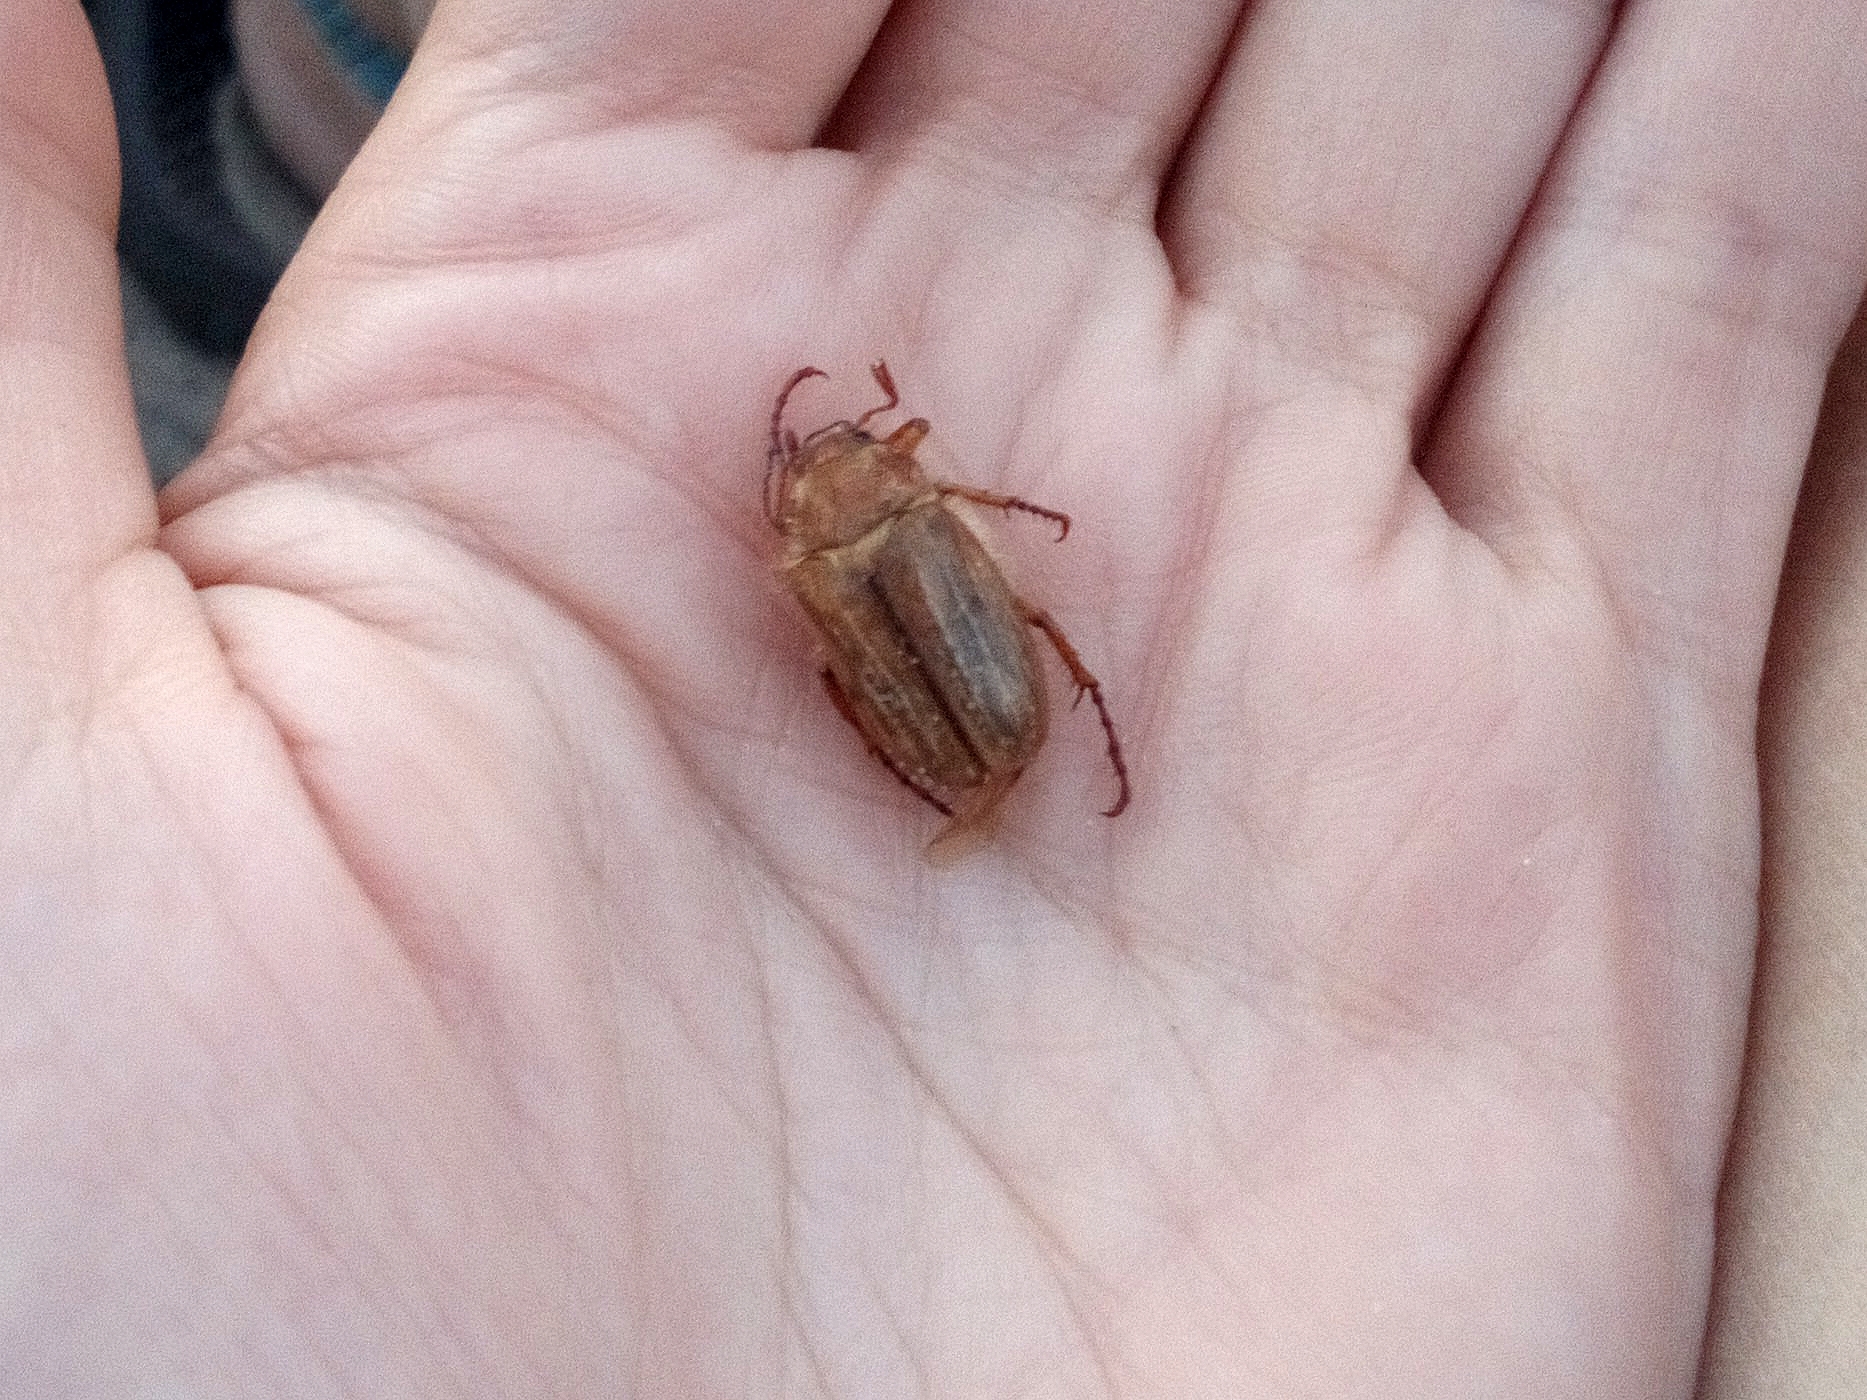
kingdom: Animalia
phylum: Arthropoda
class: Insecta
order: Coleoptera
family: Scarabaeidae
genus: Amphimallon
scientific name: Amphimallon solstitiale
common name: Summer chafer
